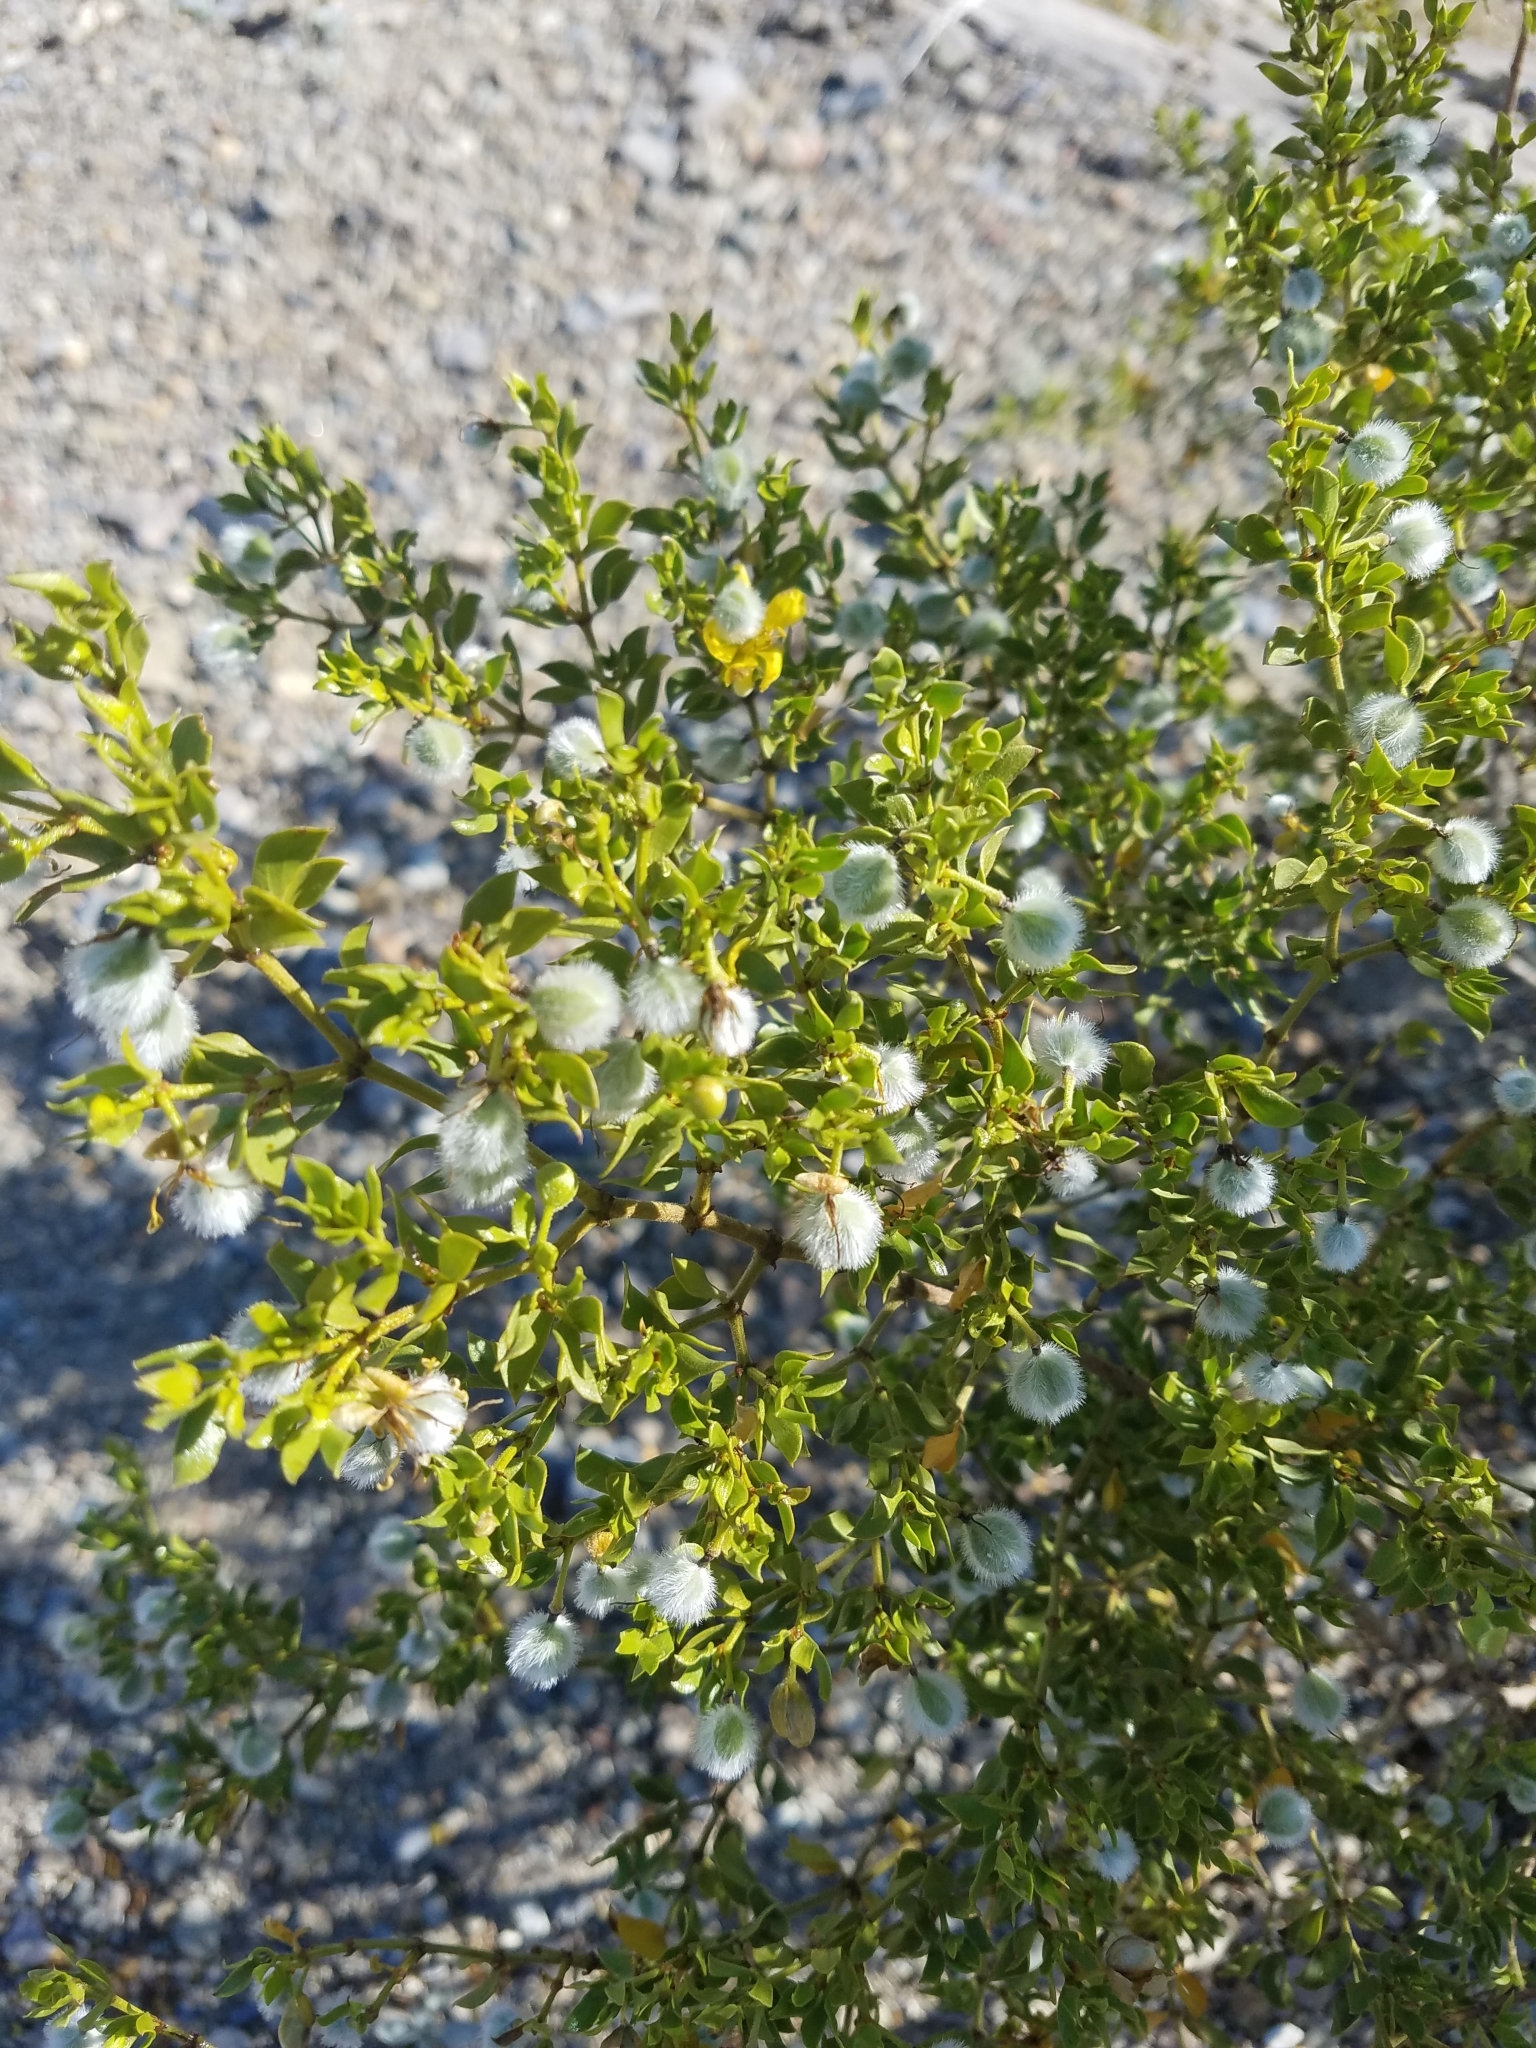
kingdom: Plantae
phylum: Tracheophyta
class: Magnoliopsida
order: Zygophyllales
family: Zygophyllaceae
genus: Larrea
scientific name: Larrea tridentata
